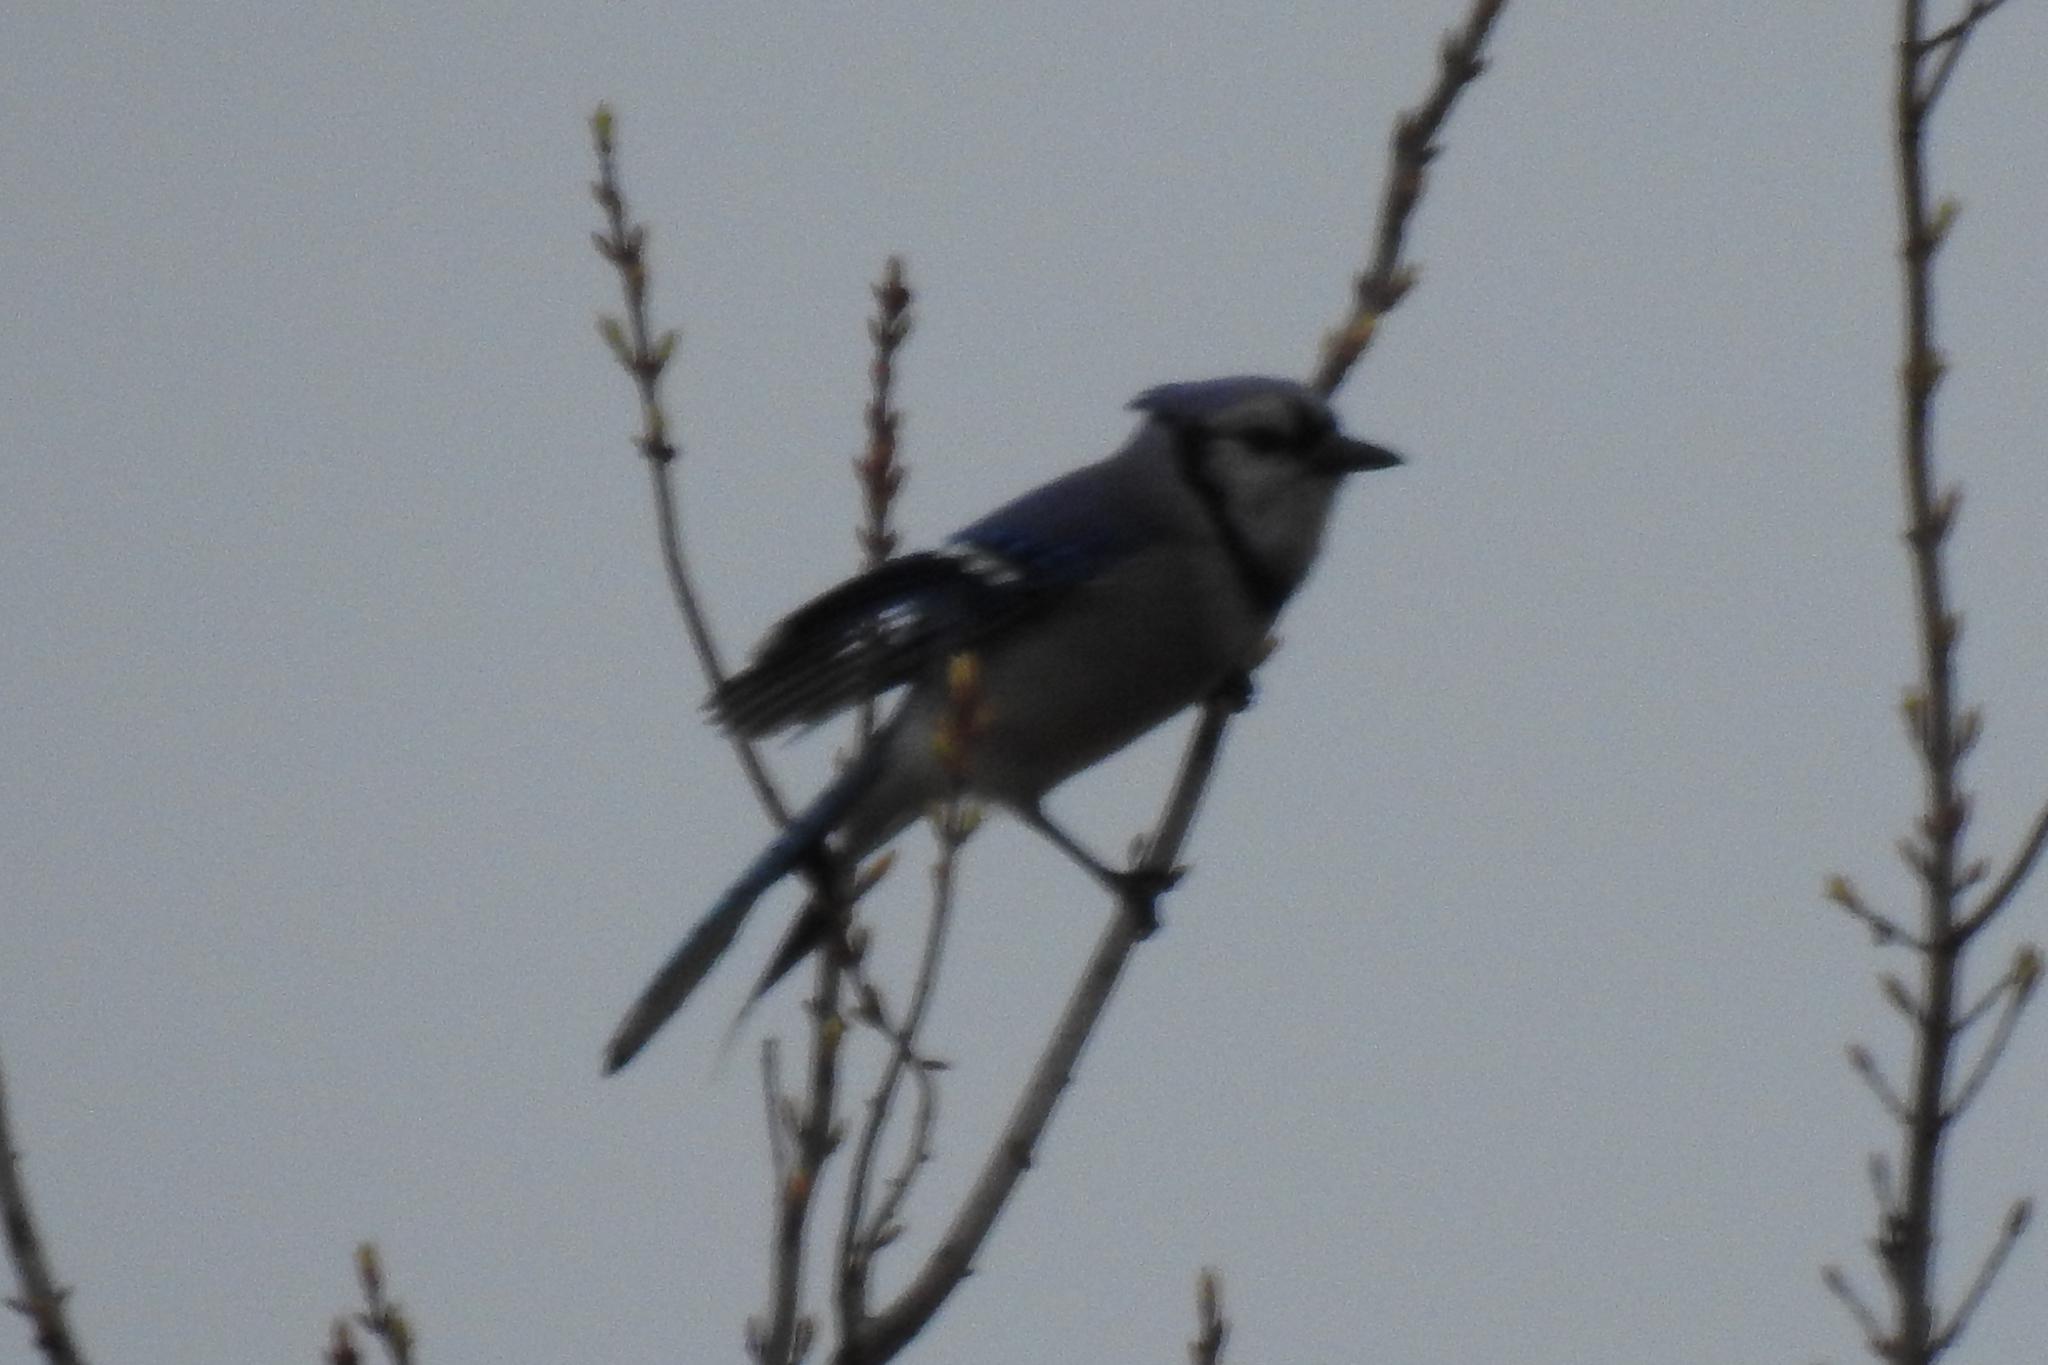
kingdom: Animalia
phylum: Chordata
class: Aves
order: Passeriformes
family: Corvidae
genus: Cyanocitta
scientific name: Cyanocitta cristata
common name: Blue jay
